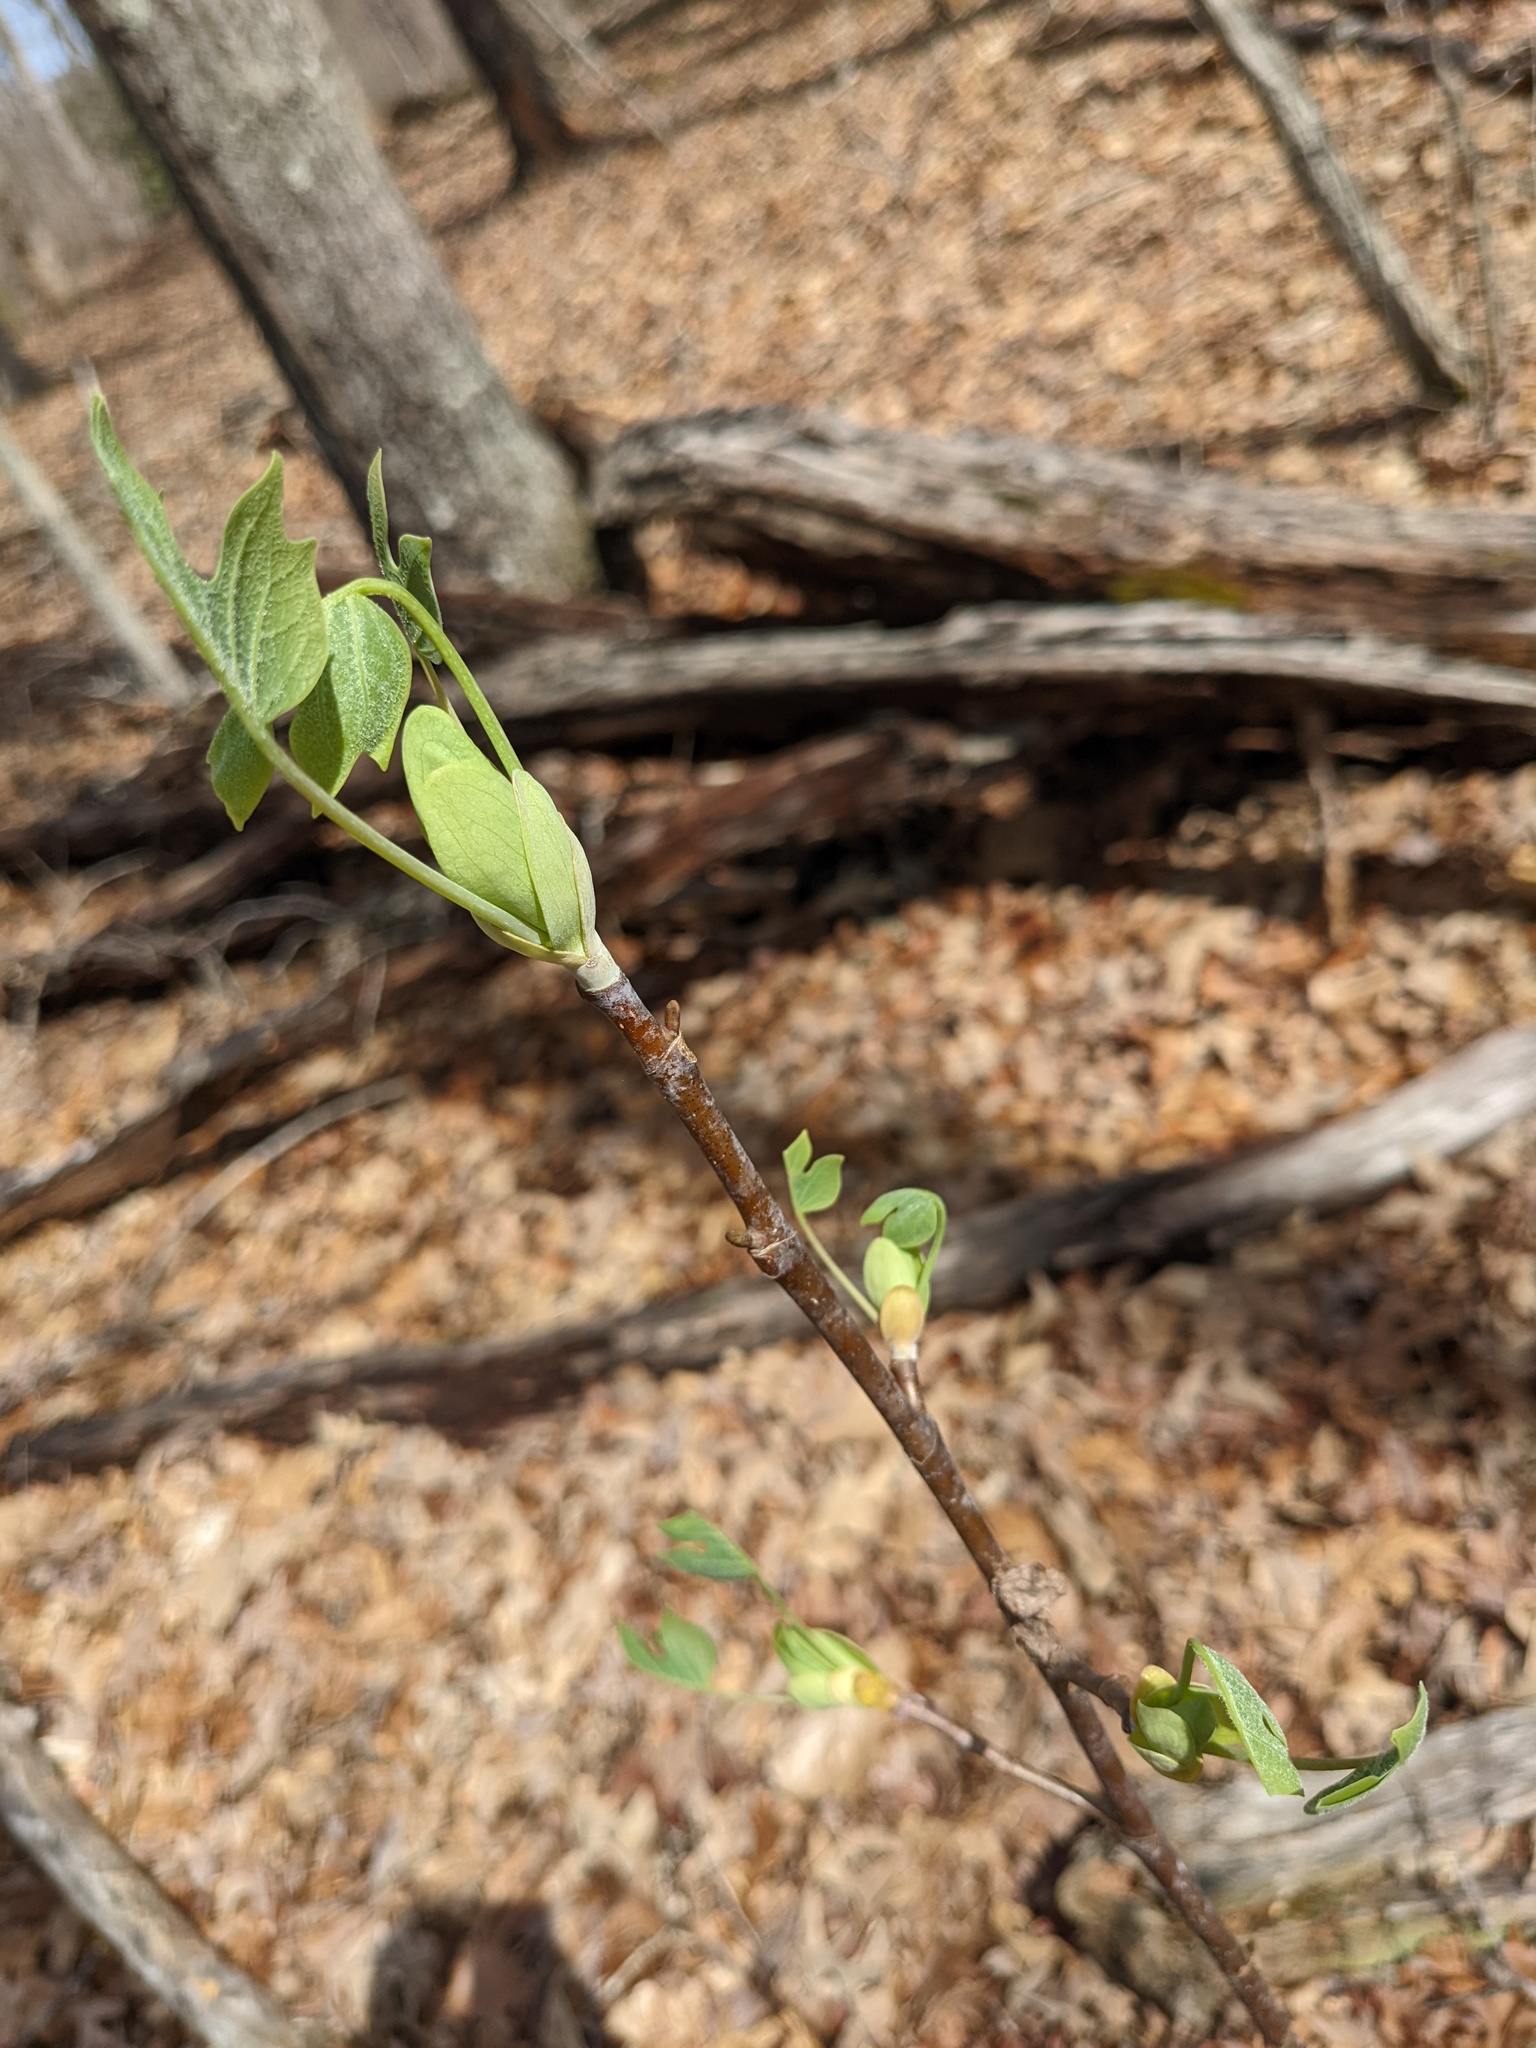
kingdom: Plantae
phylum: Tracheophyta
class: Magnoliopsida
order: Magnoliales
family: Magnoliaceae
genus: Liriodendron
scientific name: Liriodendron tulipifera
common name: Tulip tree
